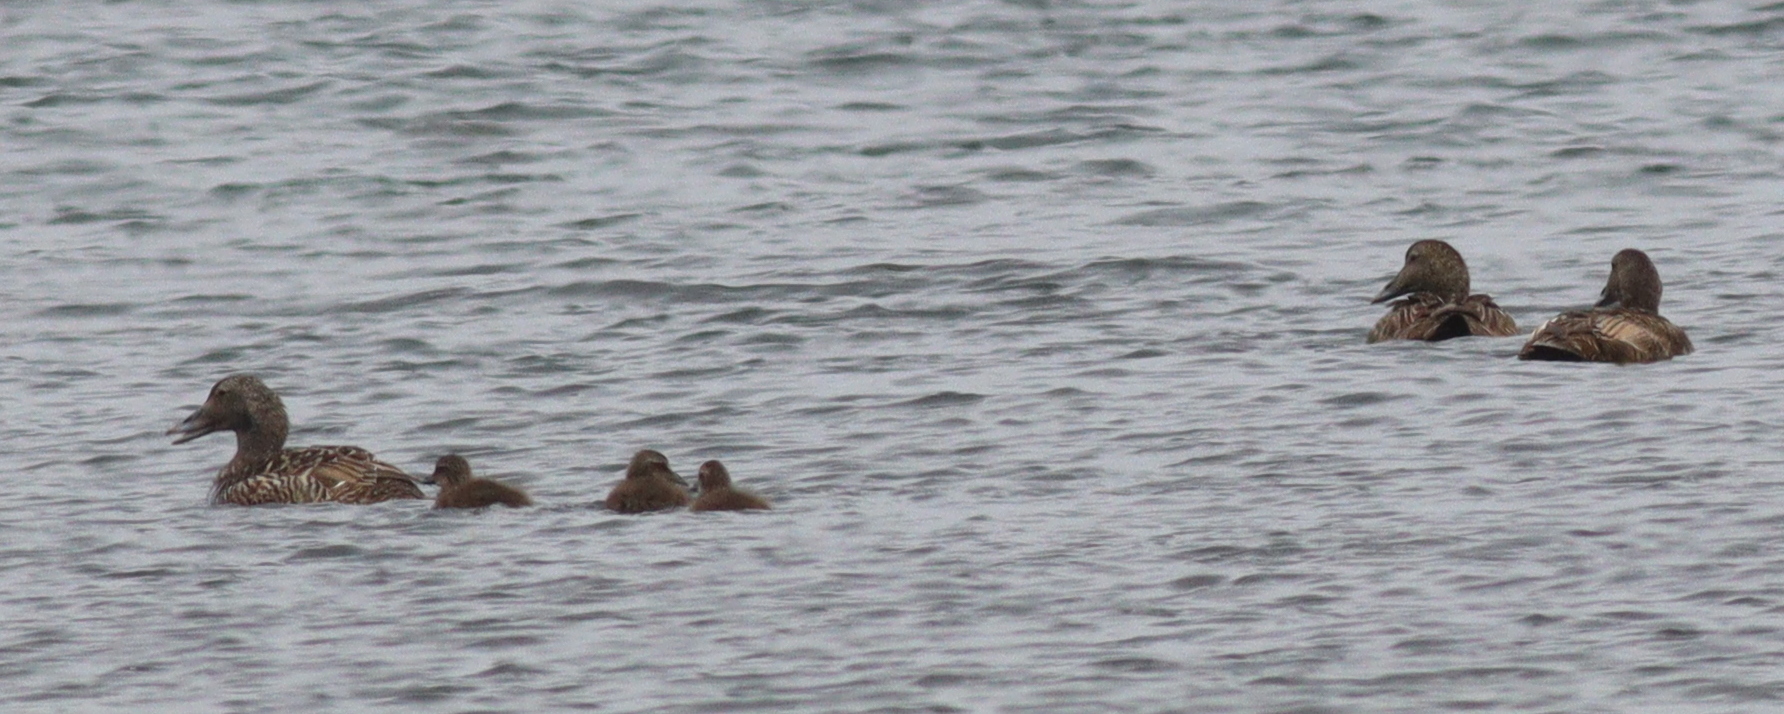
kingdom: Animalia
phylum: Chordata
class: Aves
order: Anseriformes
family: Anatidae
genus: Somateria
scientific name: Somateria mollissima
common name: Common eider
